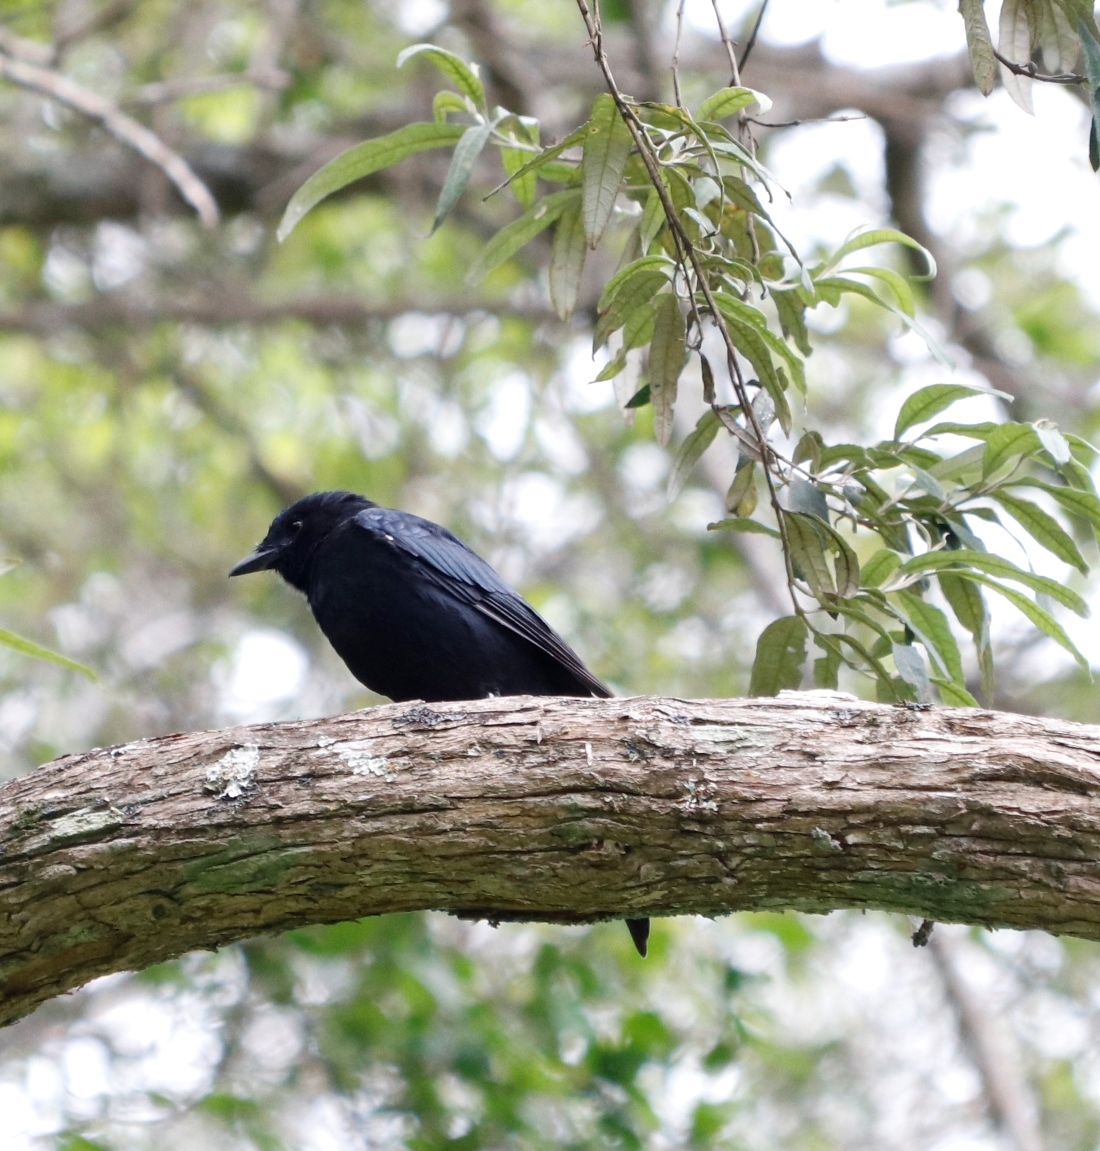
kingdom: Animalia
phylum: Chordata
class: Aves
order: Passeriformes
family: Dicruridae
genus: Dicrurus
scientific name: Dicrurus adsimilis
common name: Fork-tailed drongo
